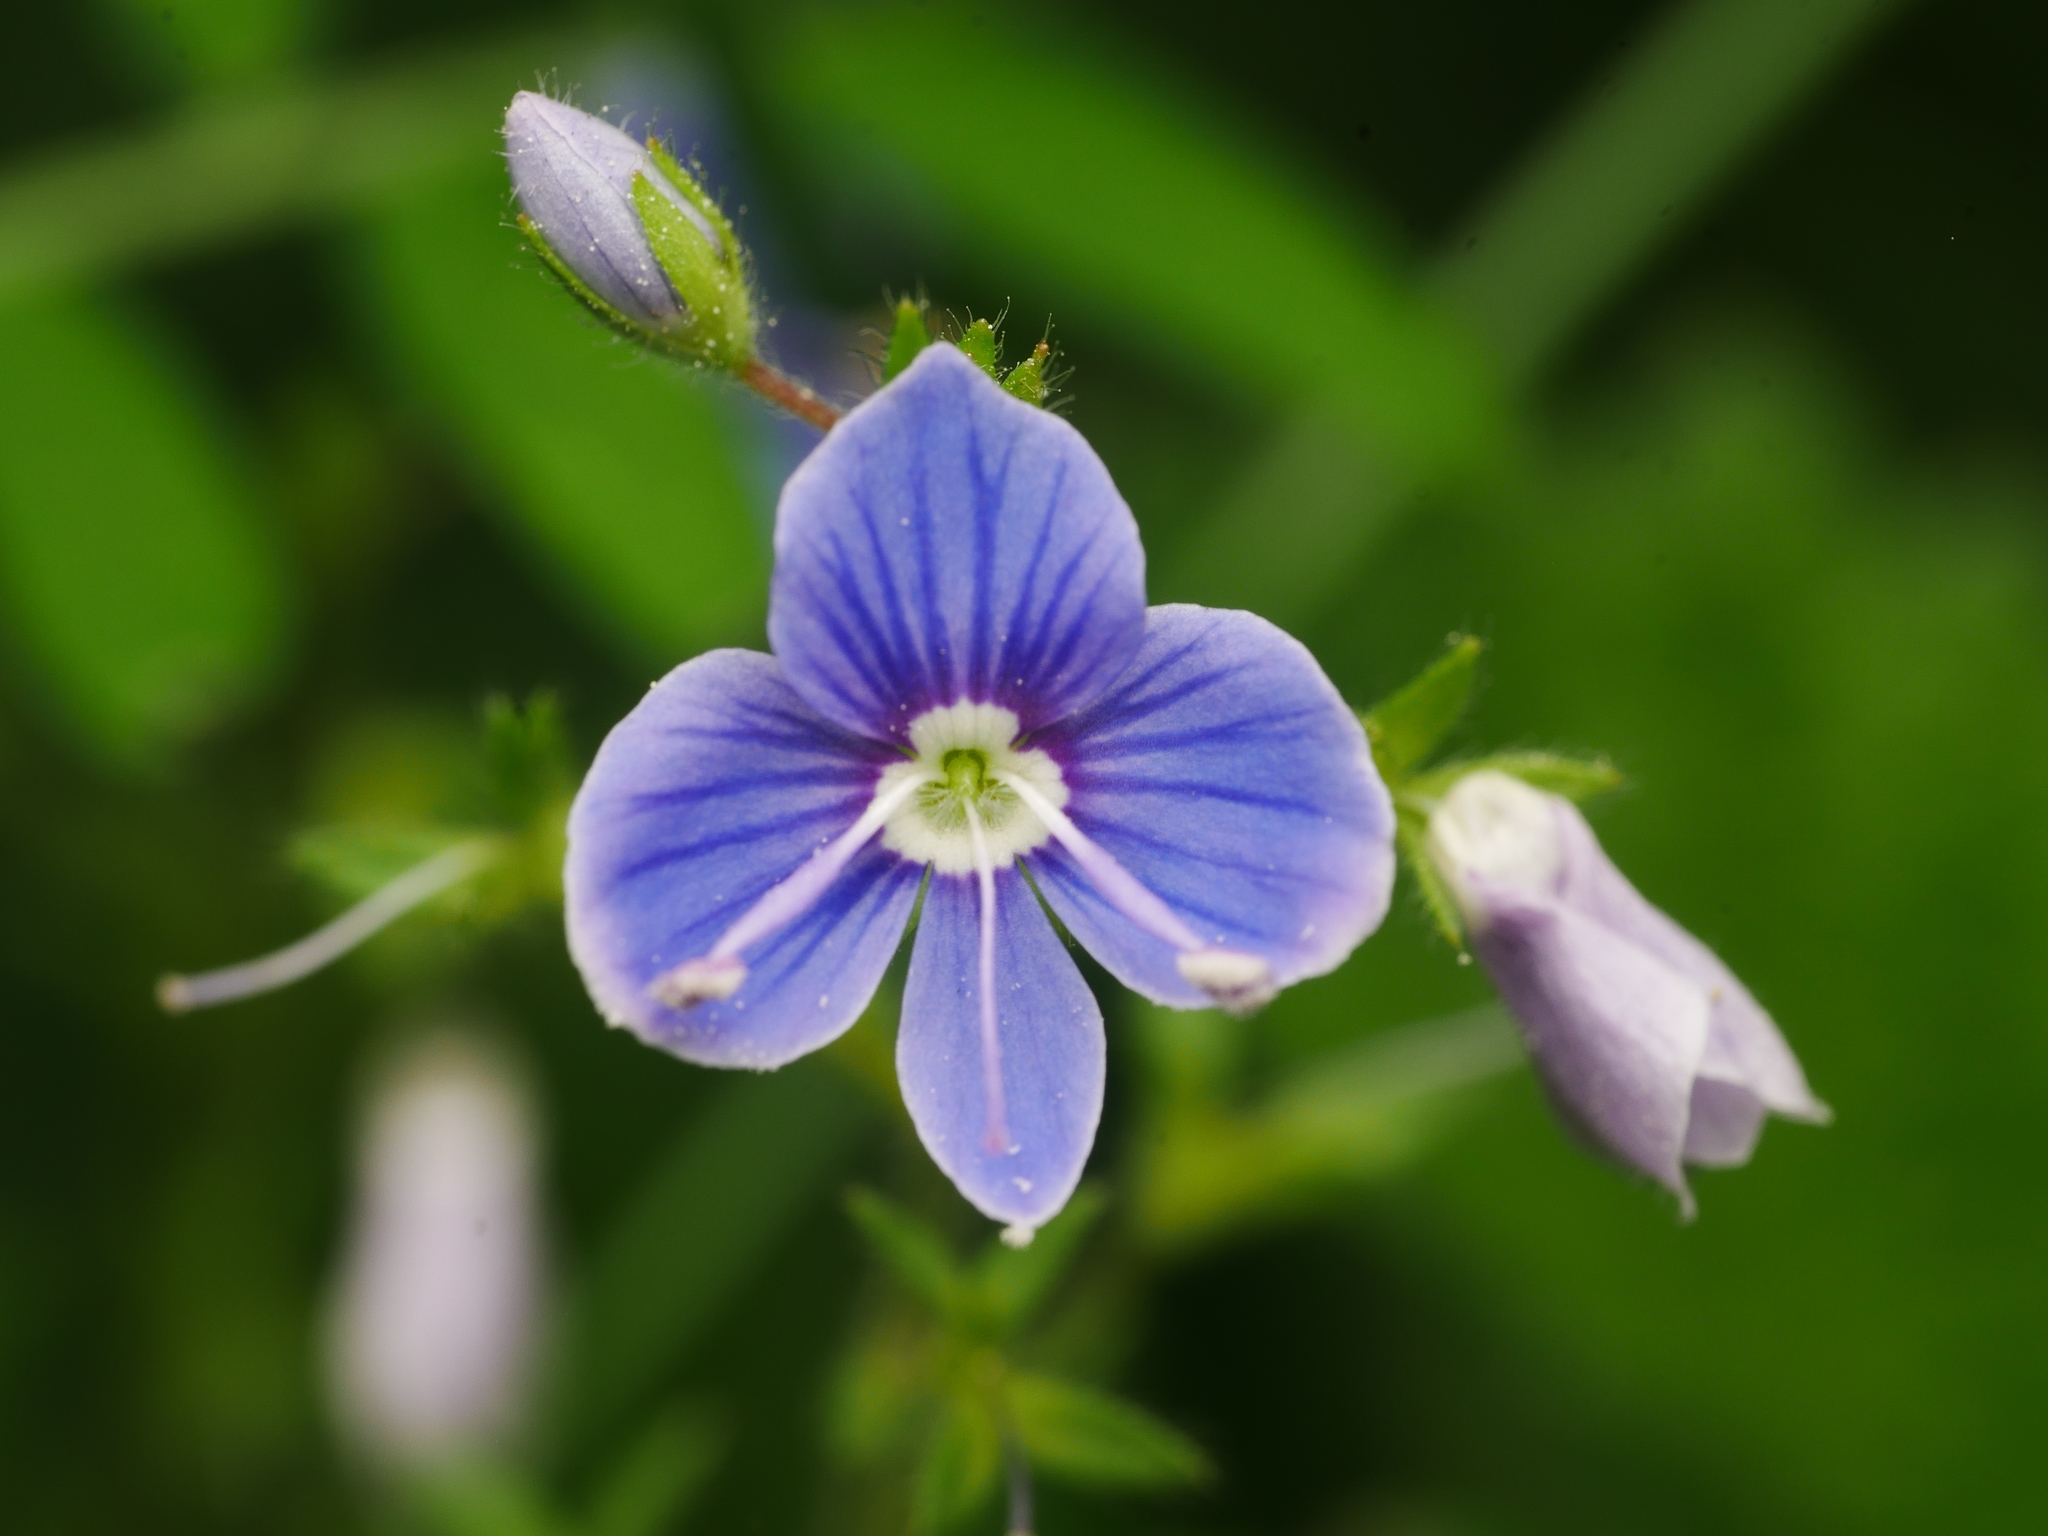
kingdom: Plantae
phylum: Tracheophyta
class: Magnoliopsida
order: Lamiales
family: Plantaginaceae
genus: Veronica
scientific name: Veronica chamaedrys
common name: Germander speedwell
